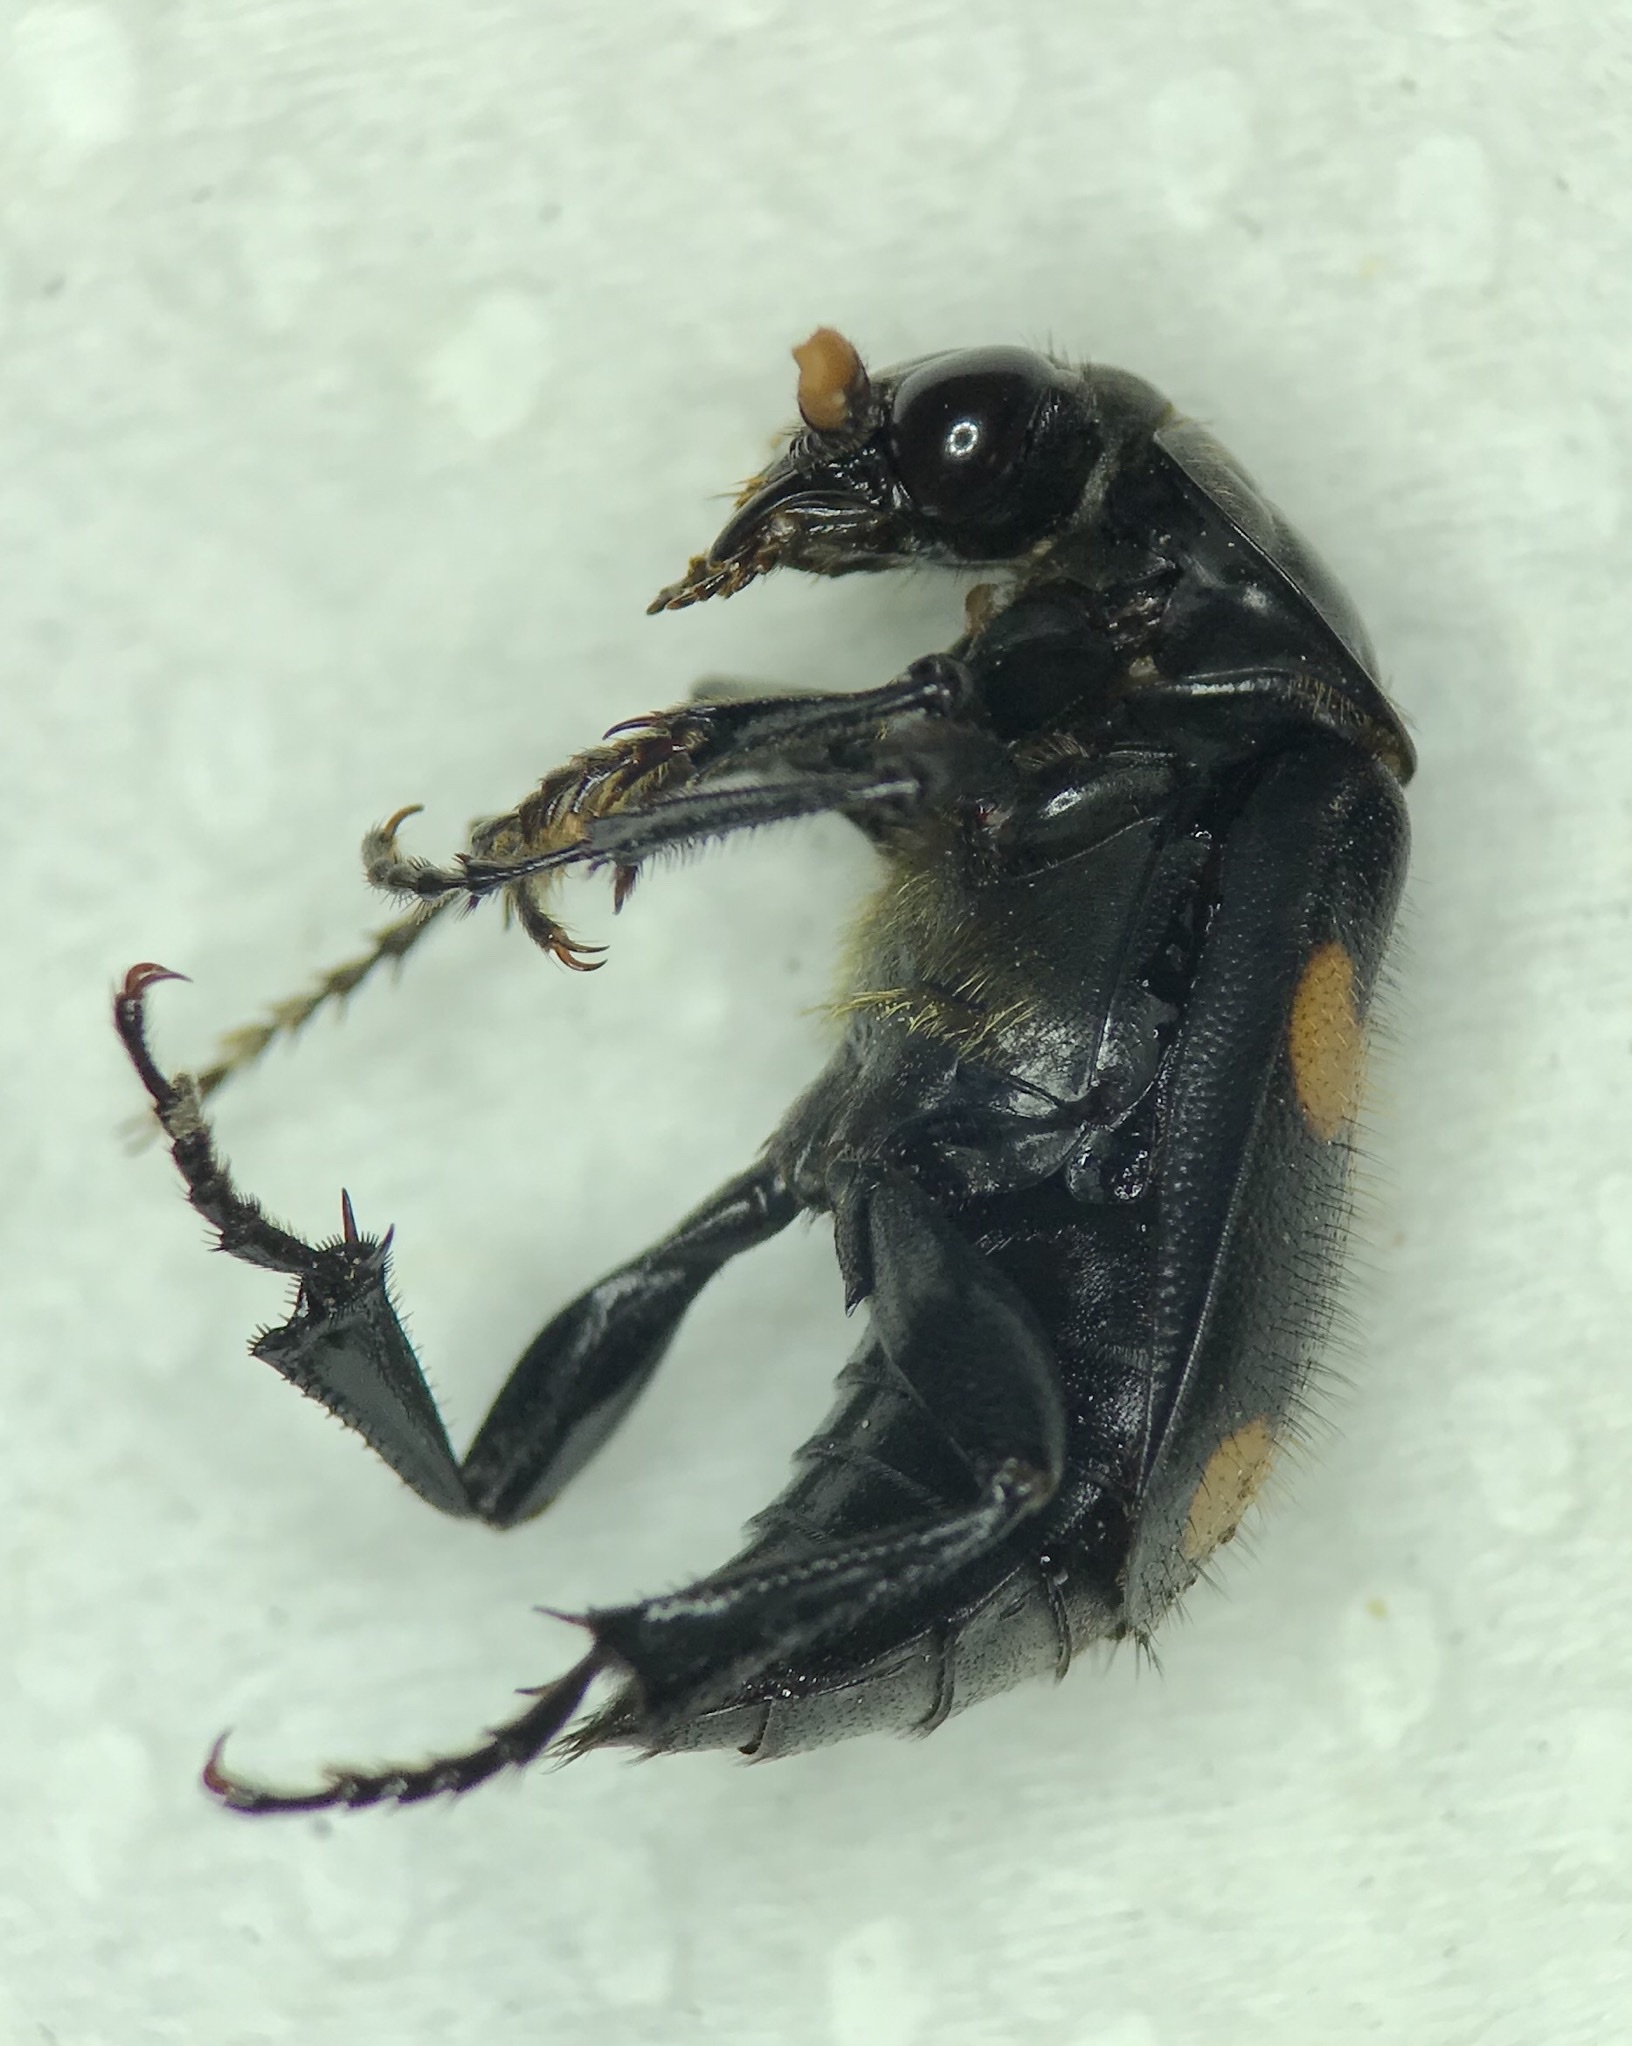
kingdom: Animalia
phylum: Arthropoda
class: Insecta
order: Coleoptera
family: Staphylinidae
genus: Nicrophorus
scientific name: Nicrophorus orbicollis
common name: Roundneck sexton beetle
